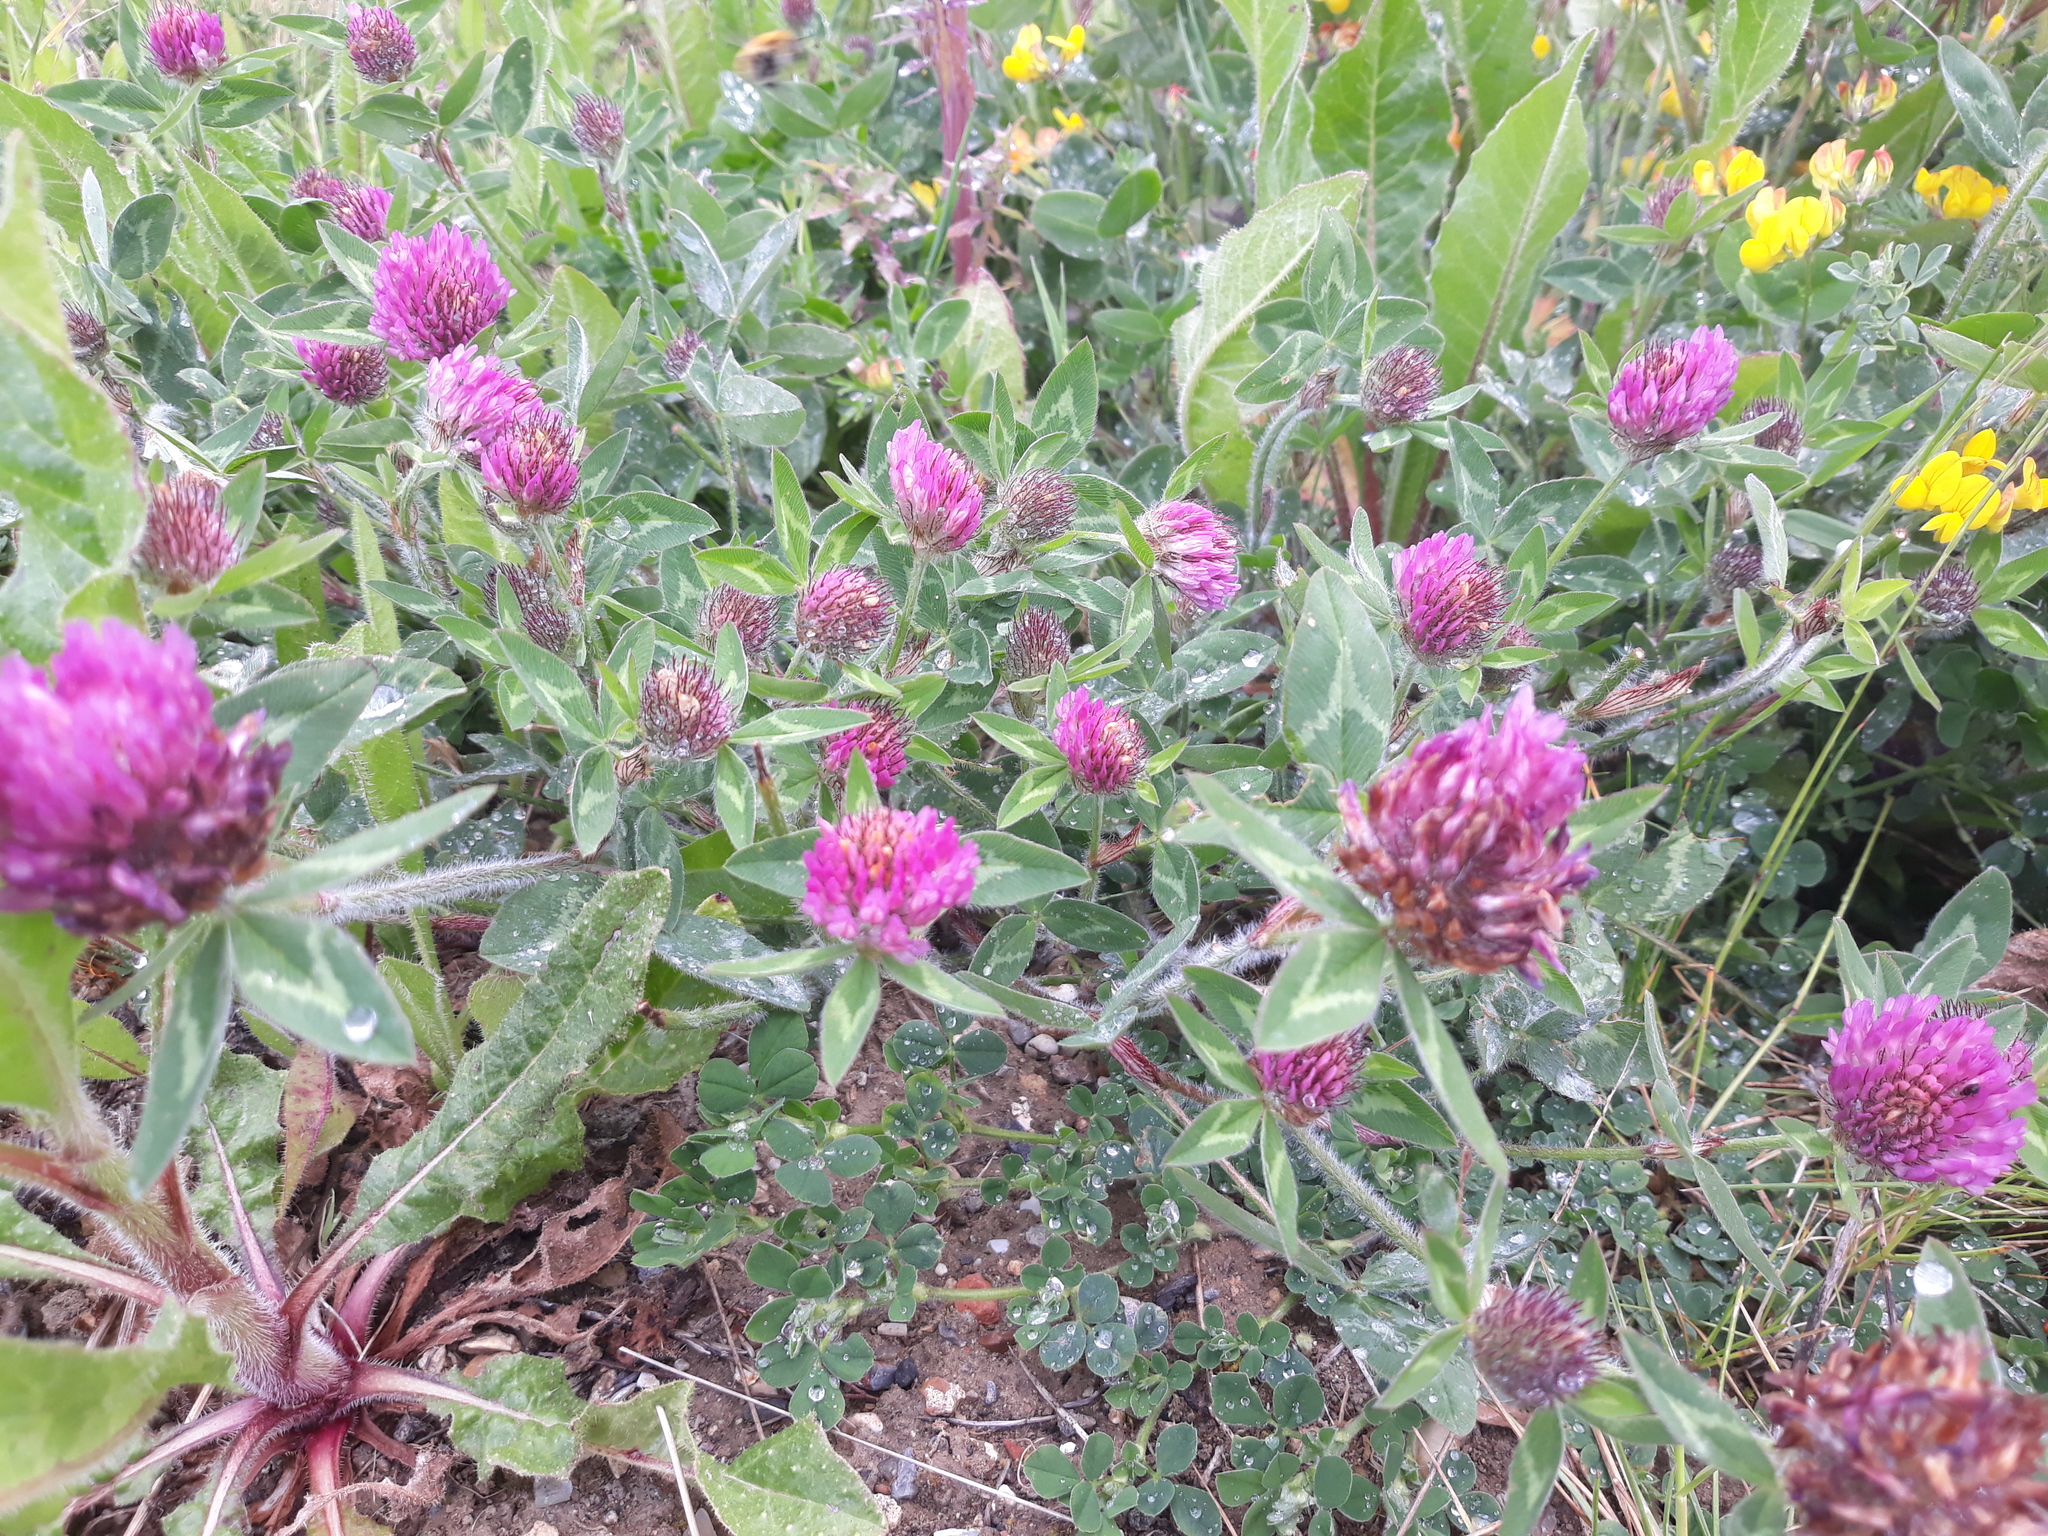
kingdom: Plantae
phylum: Tracheophyta
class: Magnoliopsida
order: Fabales
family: Fabaceae
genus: Trifolium
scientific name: Trifolium pratense
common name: Red clover
